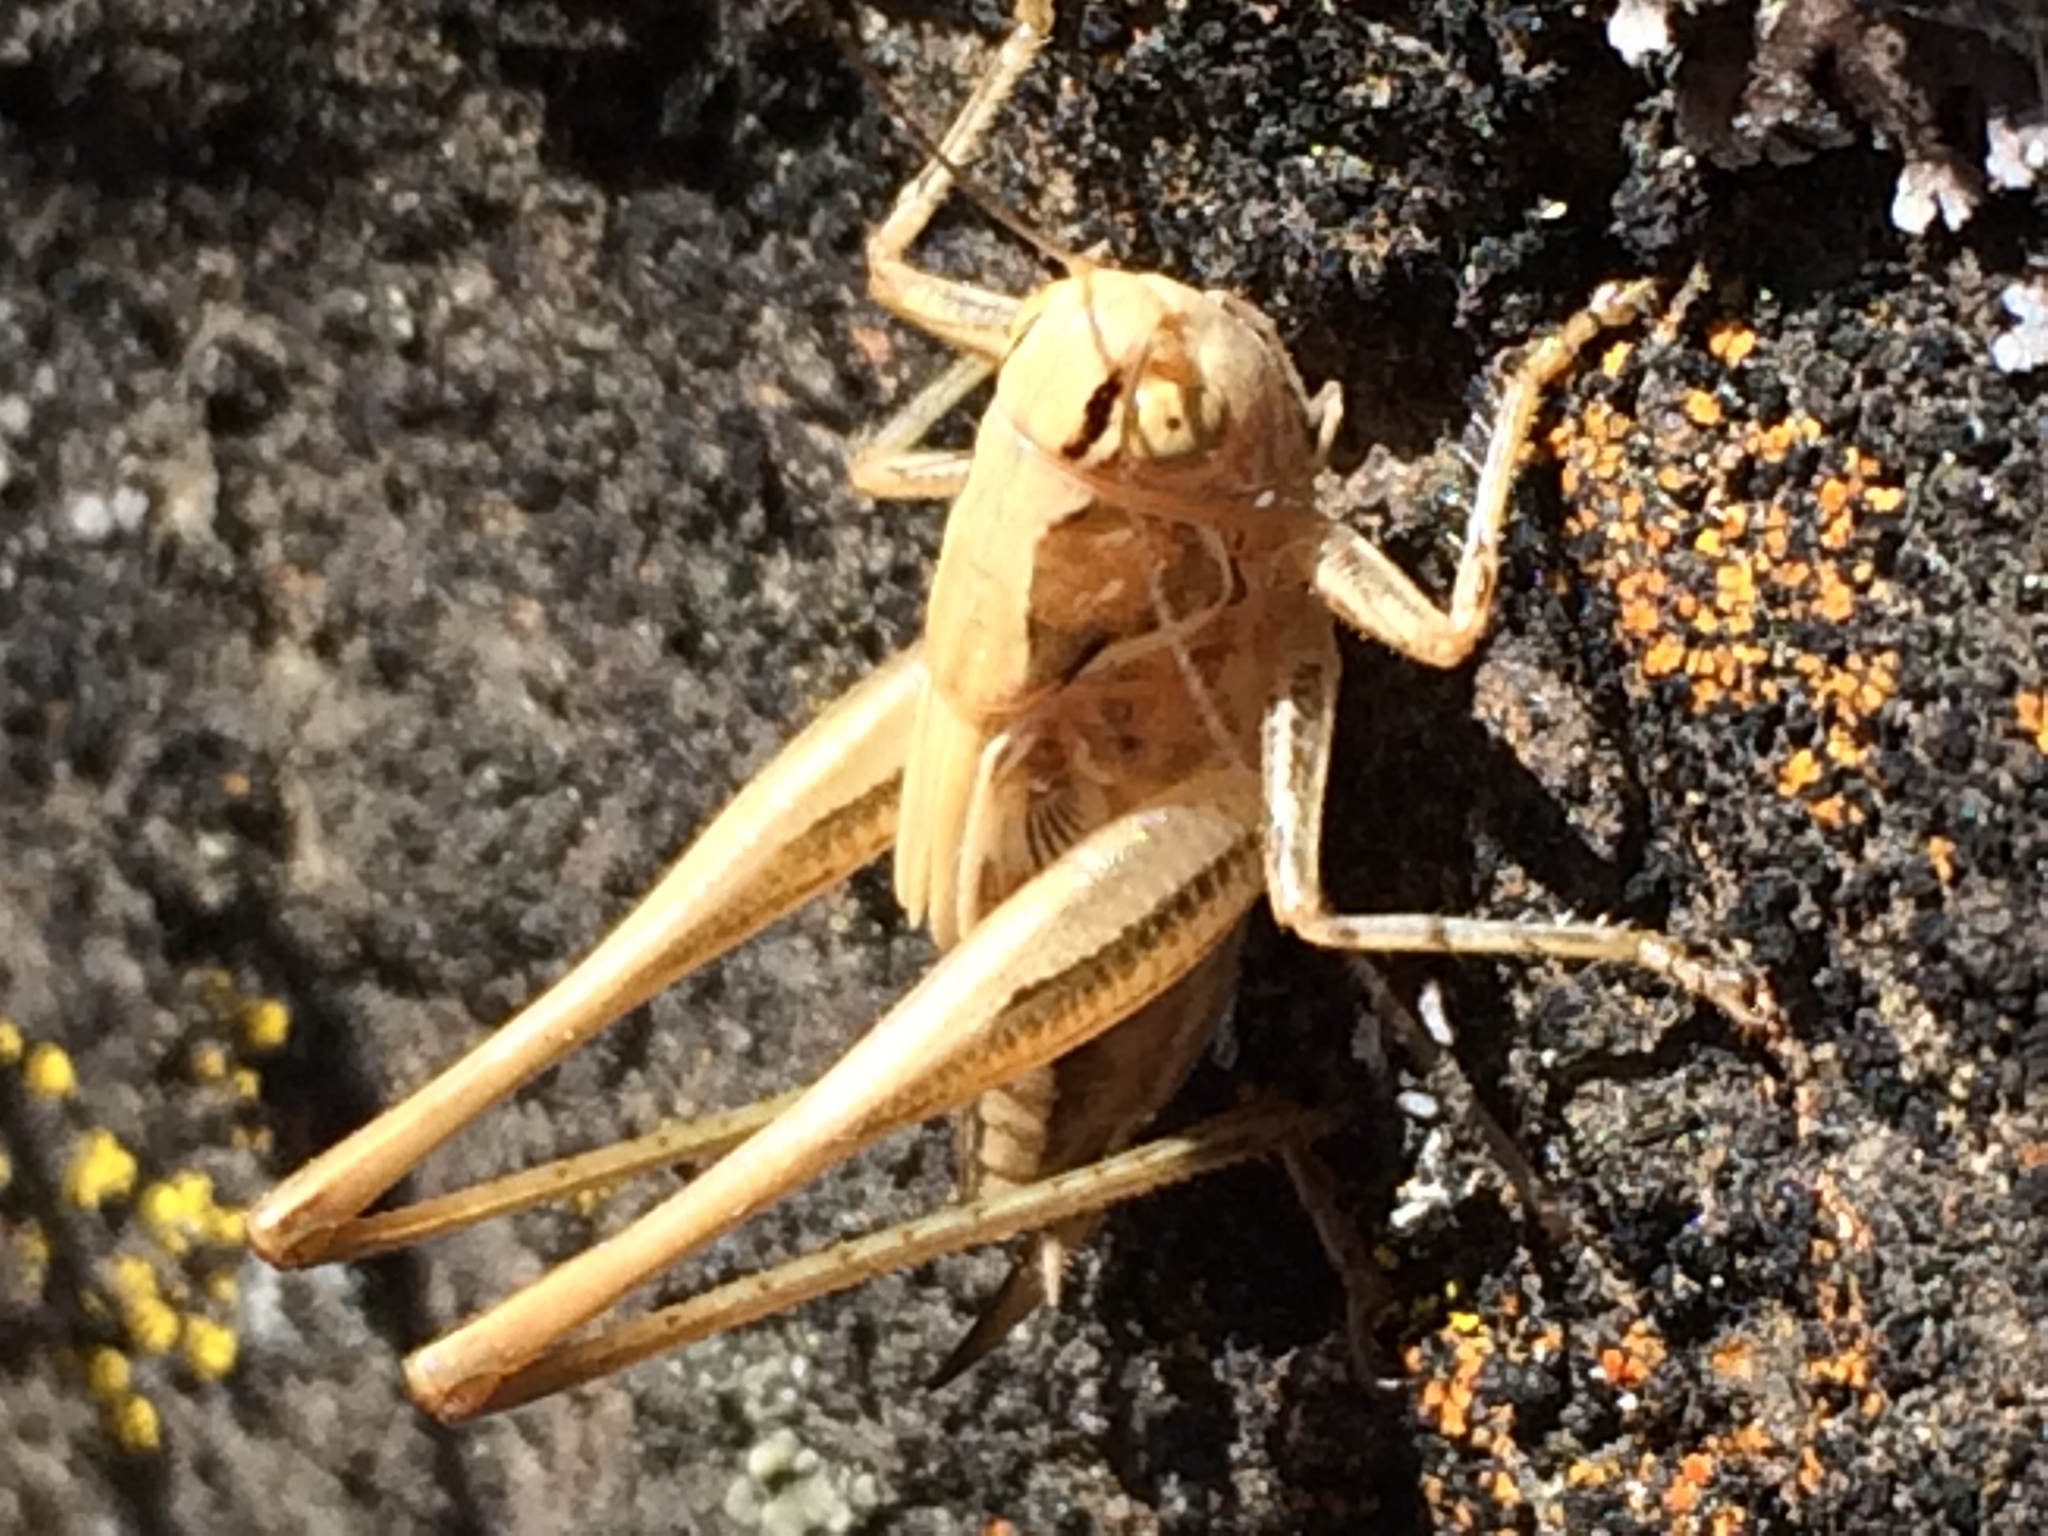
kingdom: Animalia
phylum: Arthropoda
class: Insecta
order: Orthoptera
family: Tettigoniidae
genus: Tessellana
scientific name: Tessellana tessellata
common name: Grasshopper
